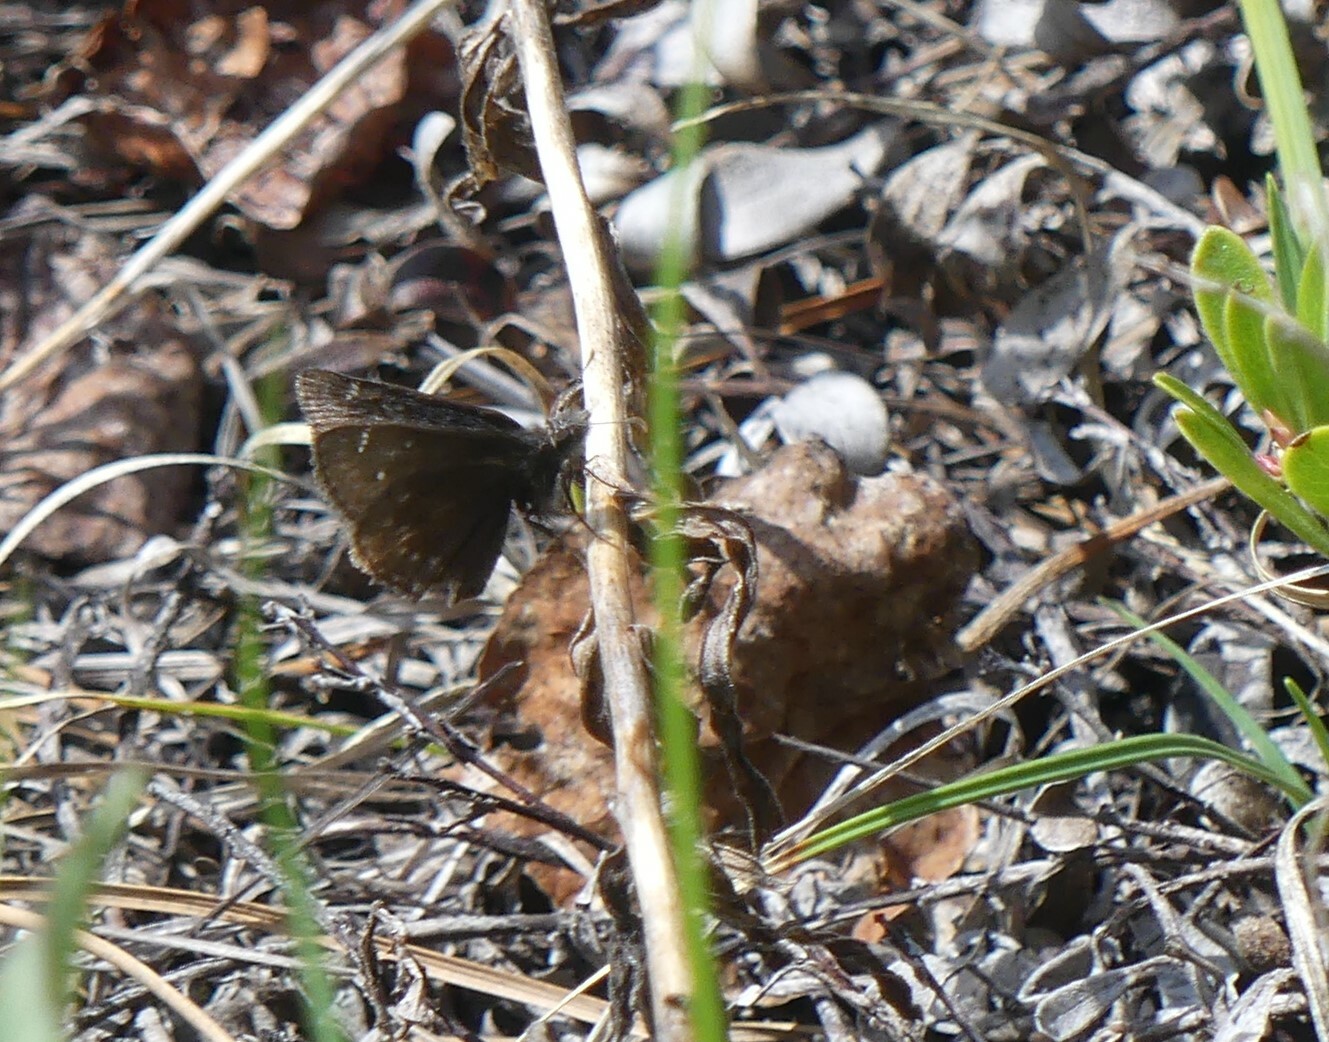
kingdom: Animalia
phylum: Arthropoda
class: Insecta
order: Lepidoptera
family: Hesperiidae
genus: Erynnis
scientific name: Erynnis persius
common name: Persius duskywing
